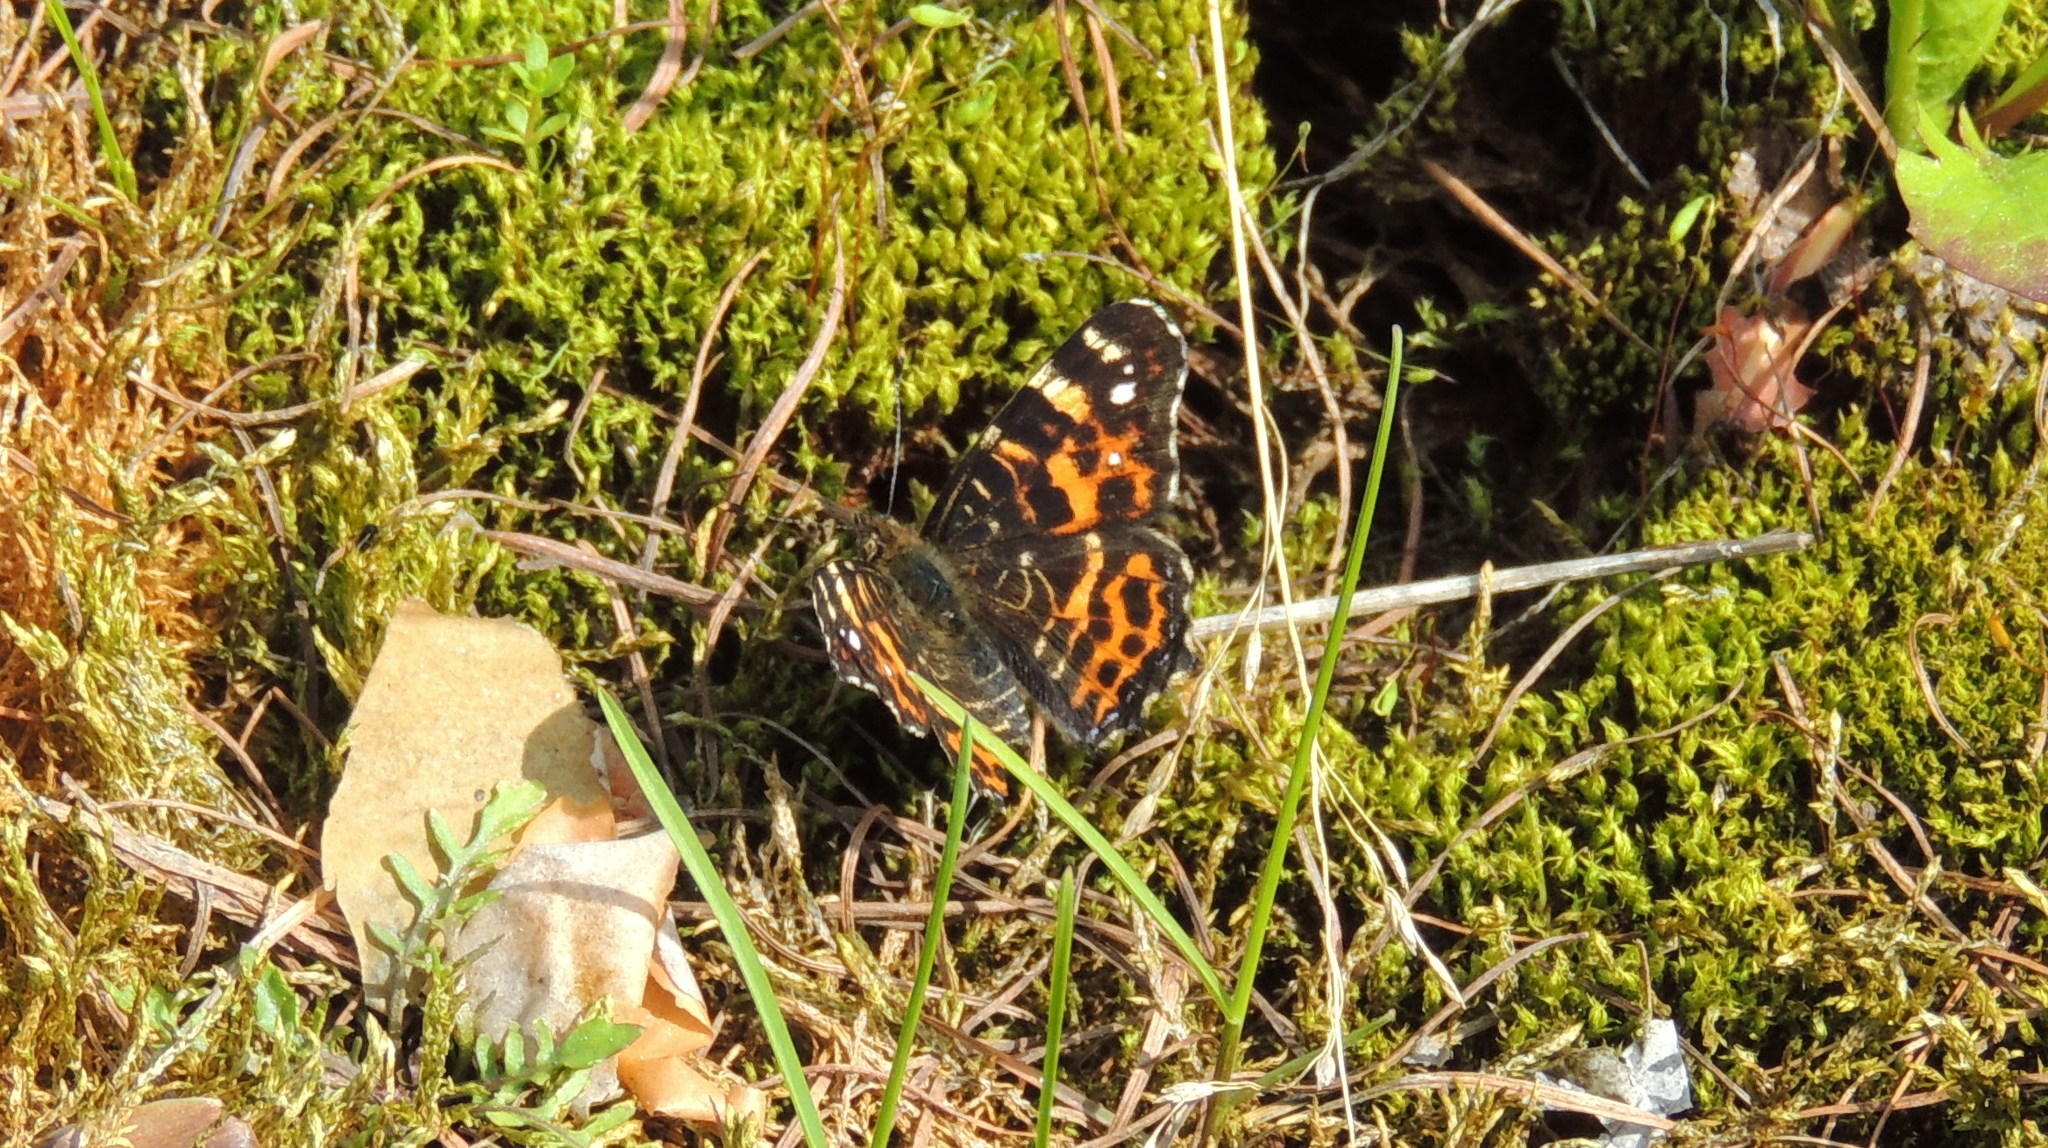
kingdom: Animalia
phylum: Arthropoda
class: Insecta
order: Lepidoptera
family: Nymphalidae
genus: Araschnia
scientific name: Araschnia levana
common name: Map butterfly
